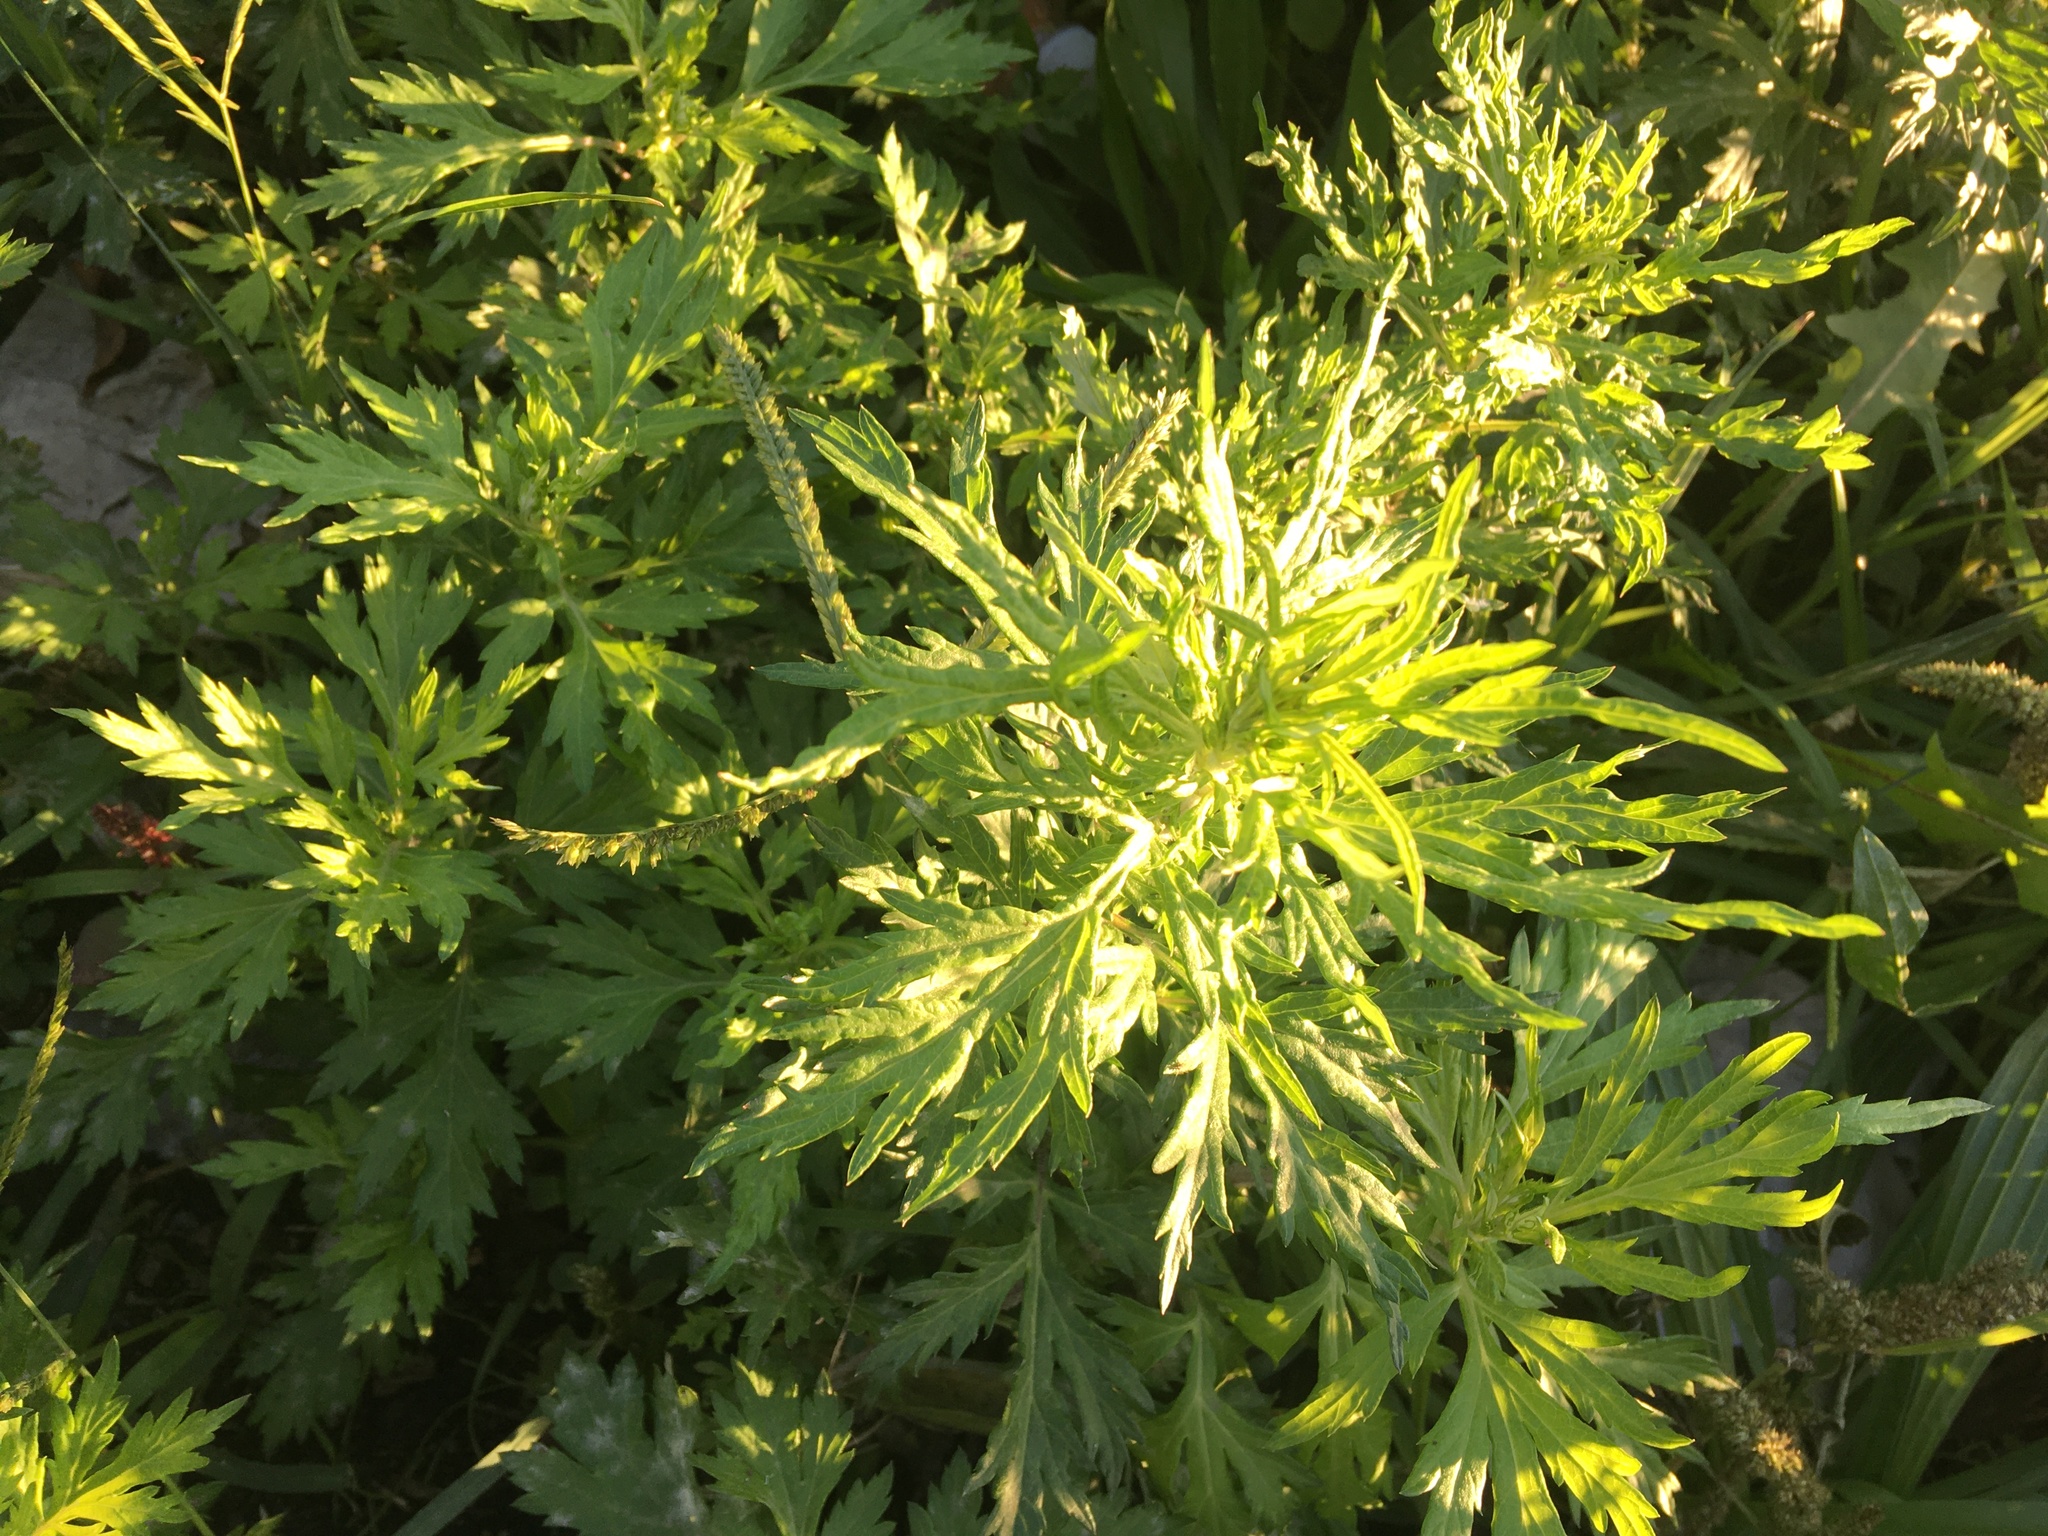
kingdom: Plantae
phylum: Tracheophyta
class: Magnoliopsida
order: Asterales
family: Asteraceae
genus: Artemisia
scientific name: Artemisia vulgaris
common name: Mugwort
